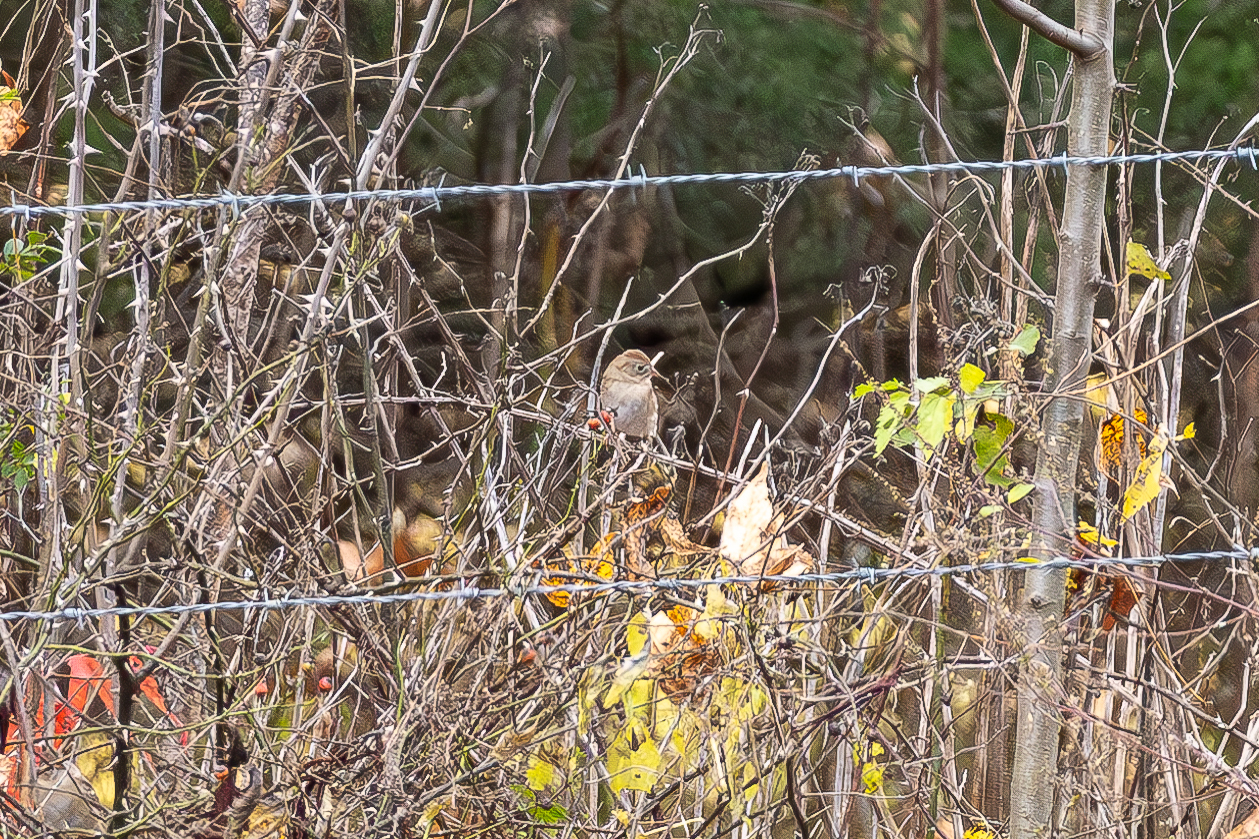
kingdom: Animalia
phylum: Chordata
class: Aves
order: Passeriformes
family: Passerellidae
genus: Spizella
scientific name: Spizella pusilla
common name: Field sparrow
